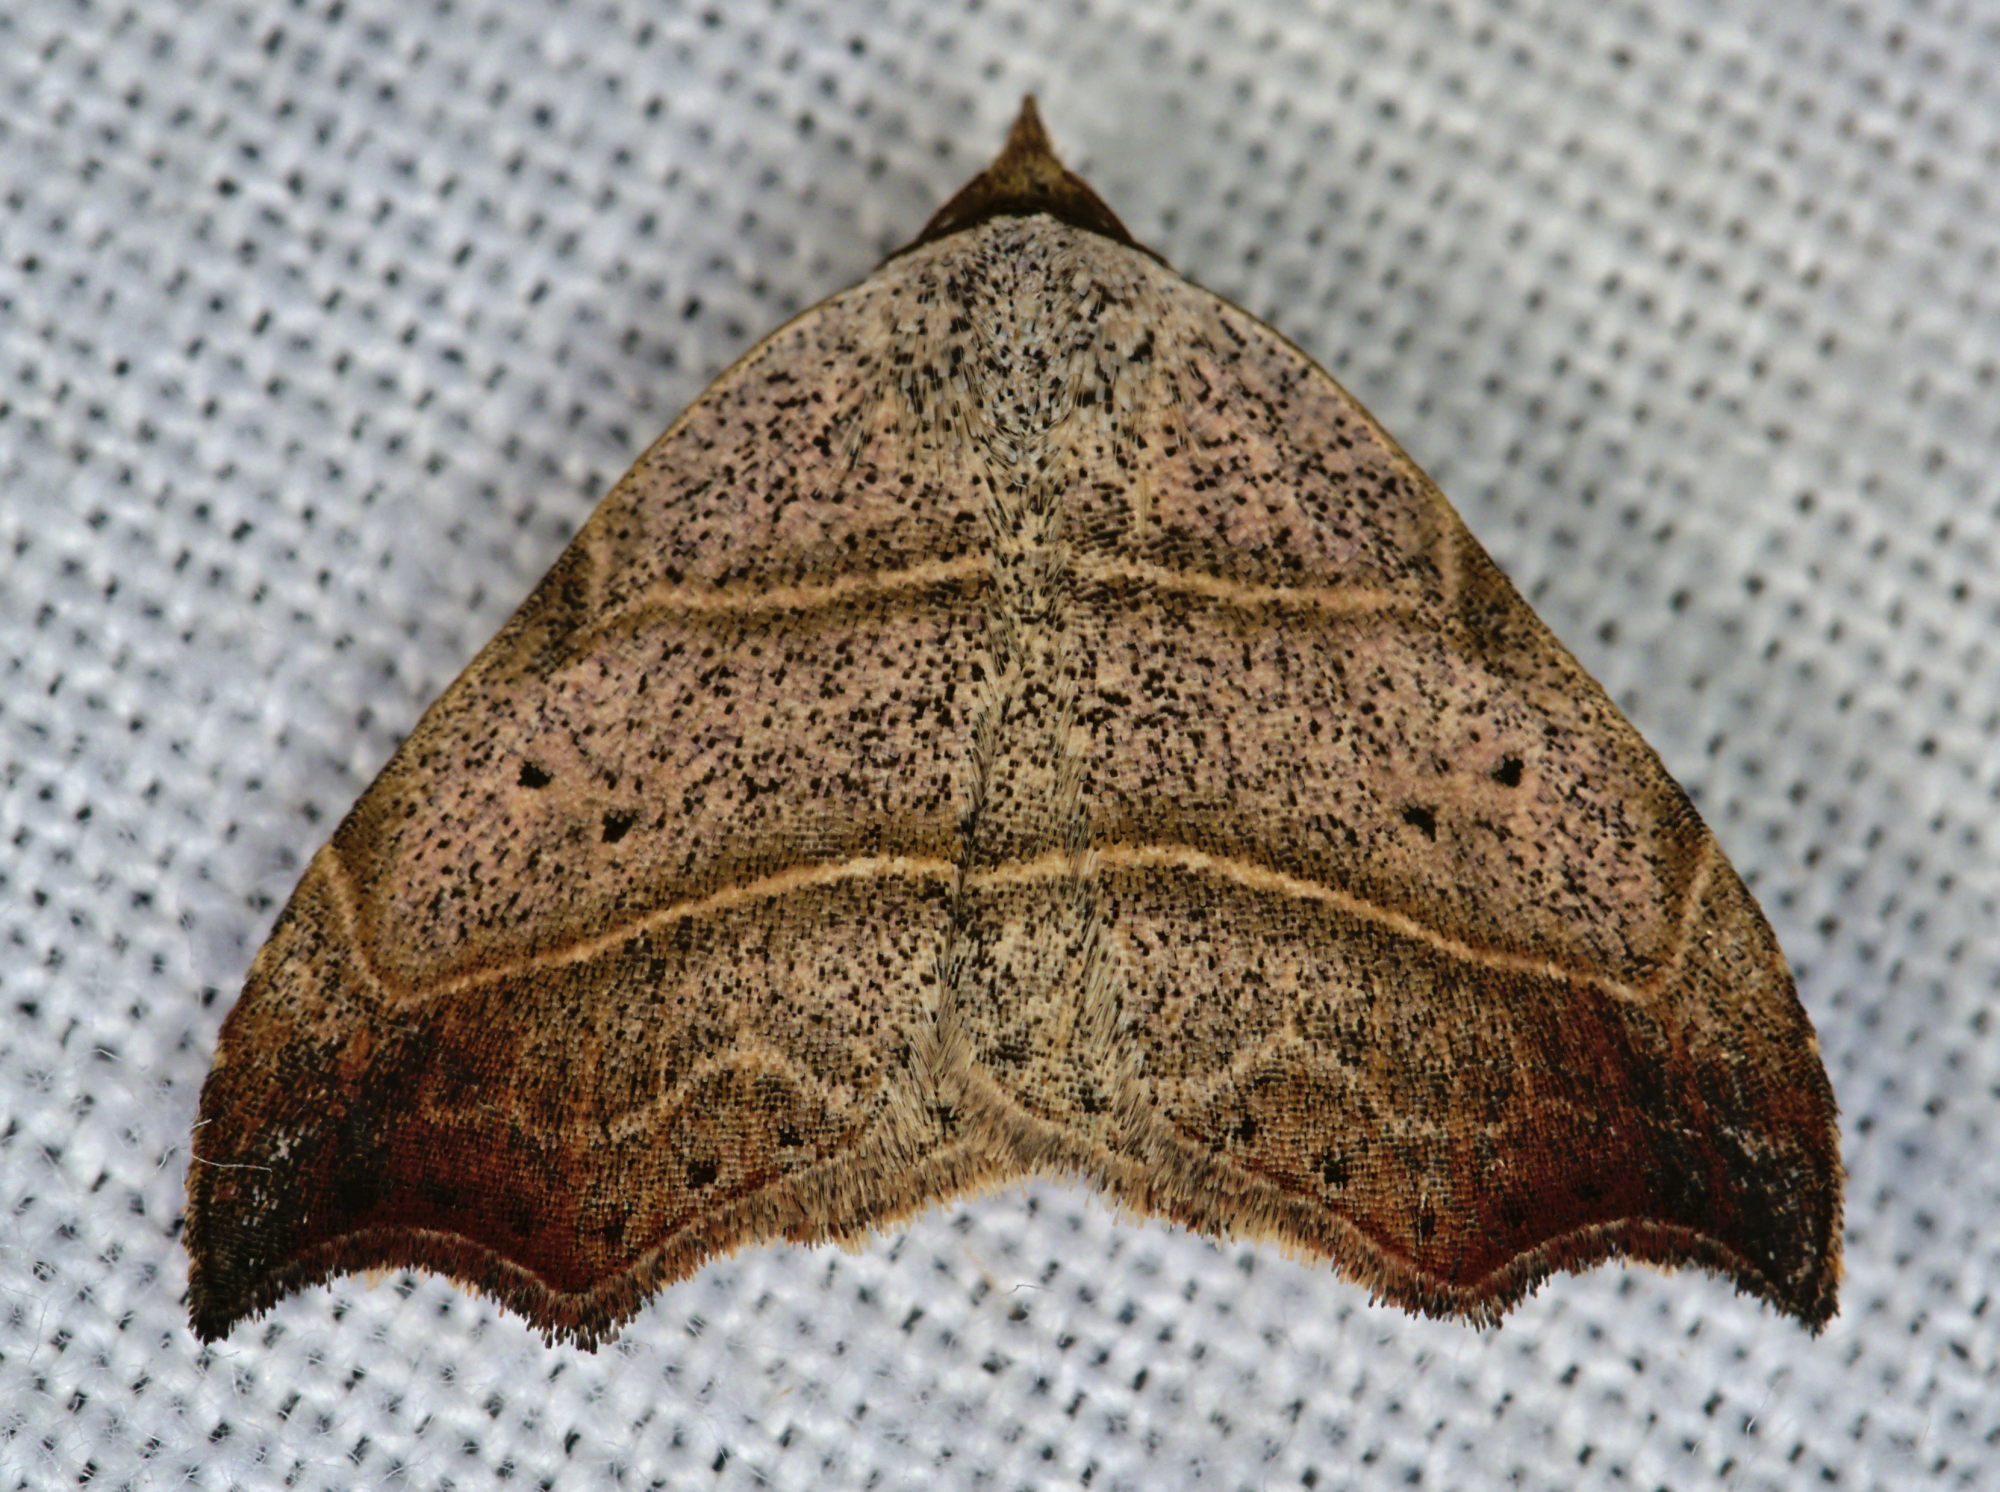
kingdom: Animalia
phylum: Arthropoda
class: Insecta
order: Lepidoptera
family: Erebidae
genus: Laspeyria
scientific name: Laspeyria flexula
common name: Beautiful hook-tip
